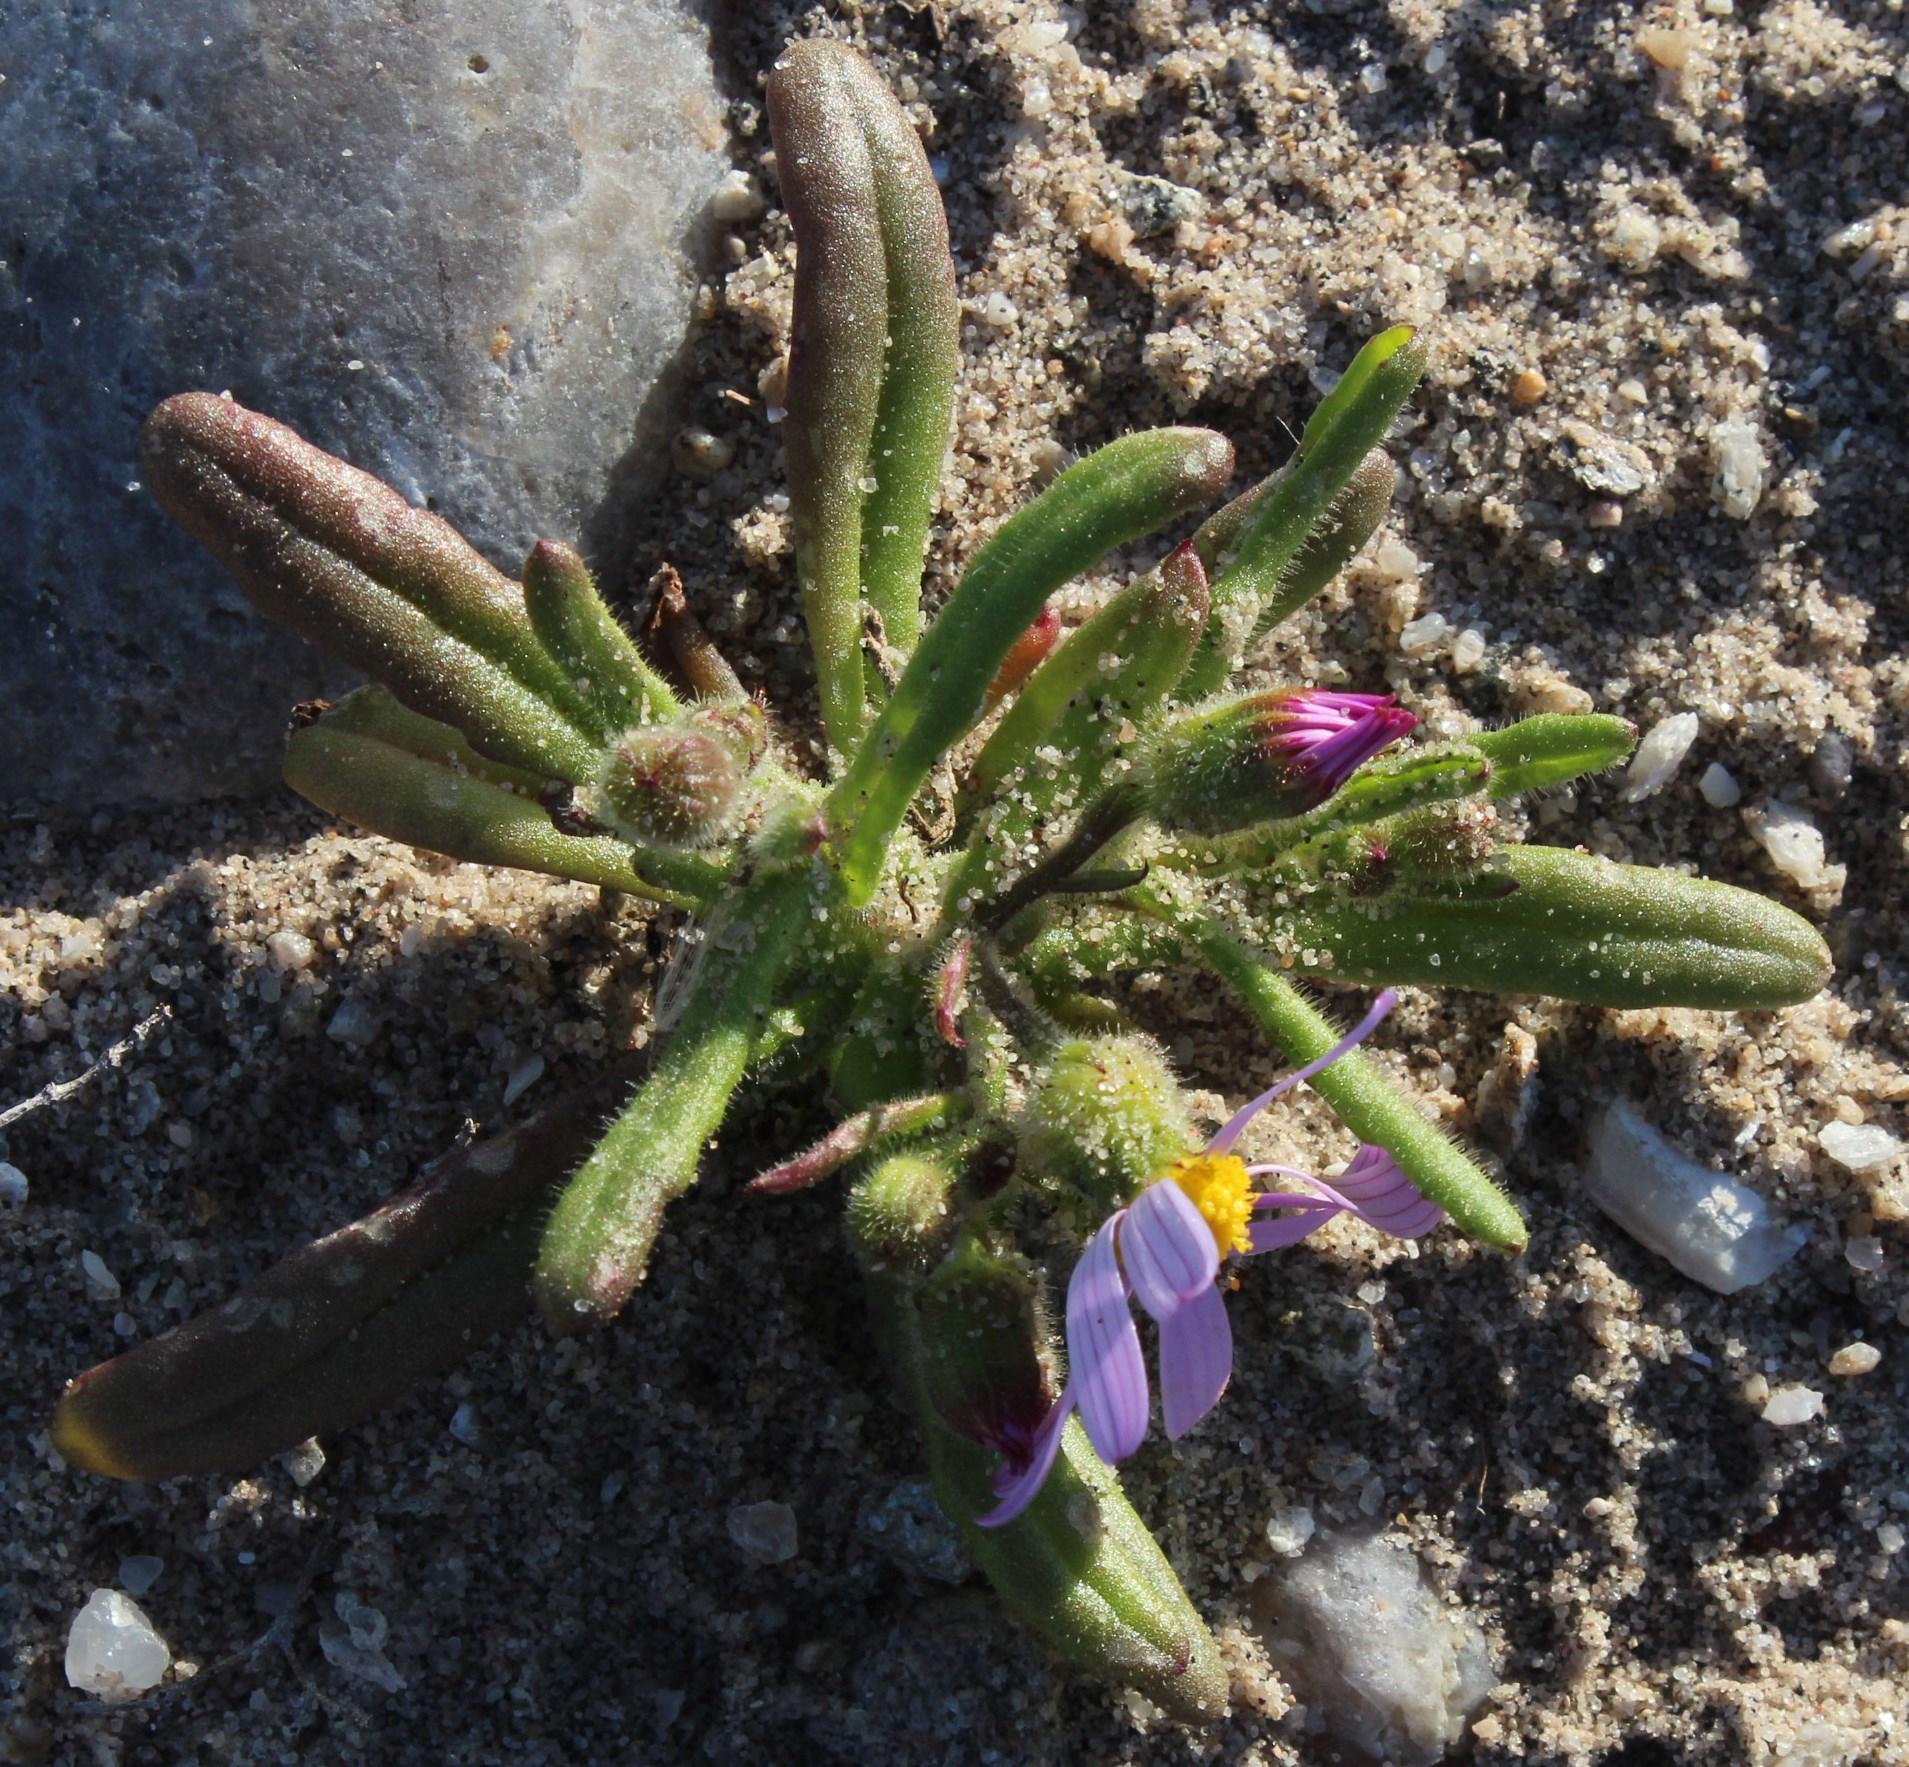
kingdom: Plantae
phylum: Tracheophyta
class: Magnoliopsida
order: Asterales
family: Asteraceae
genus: Senecio
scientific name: Senecio arenarius
